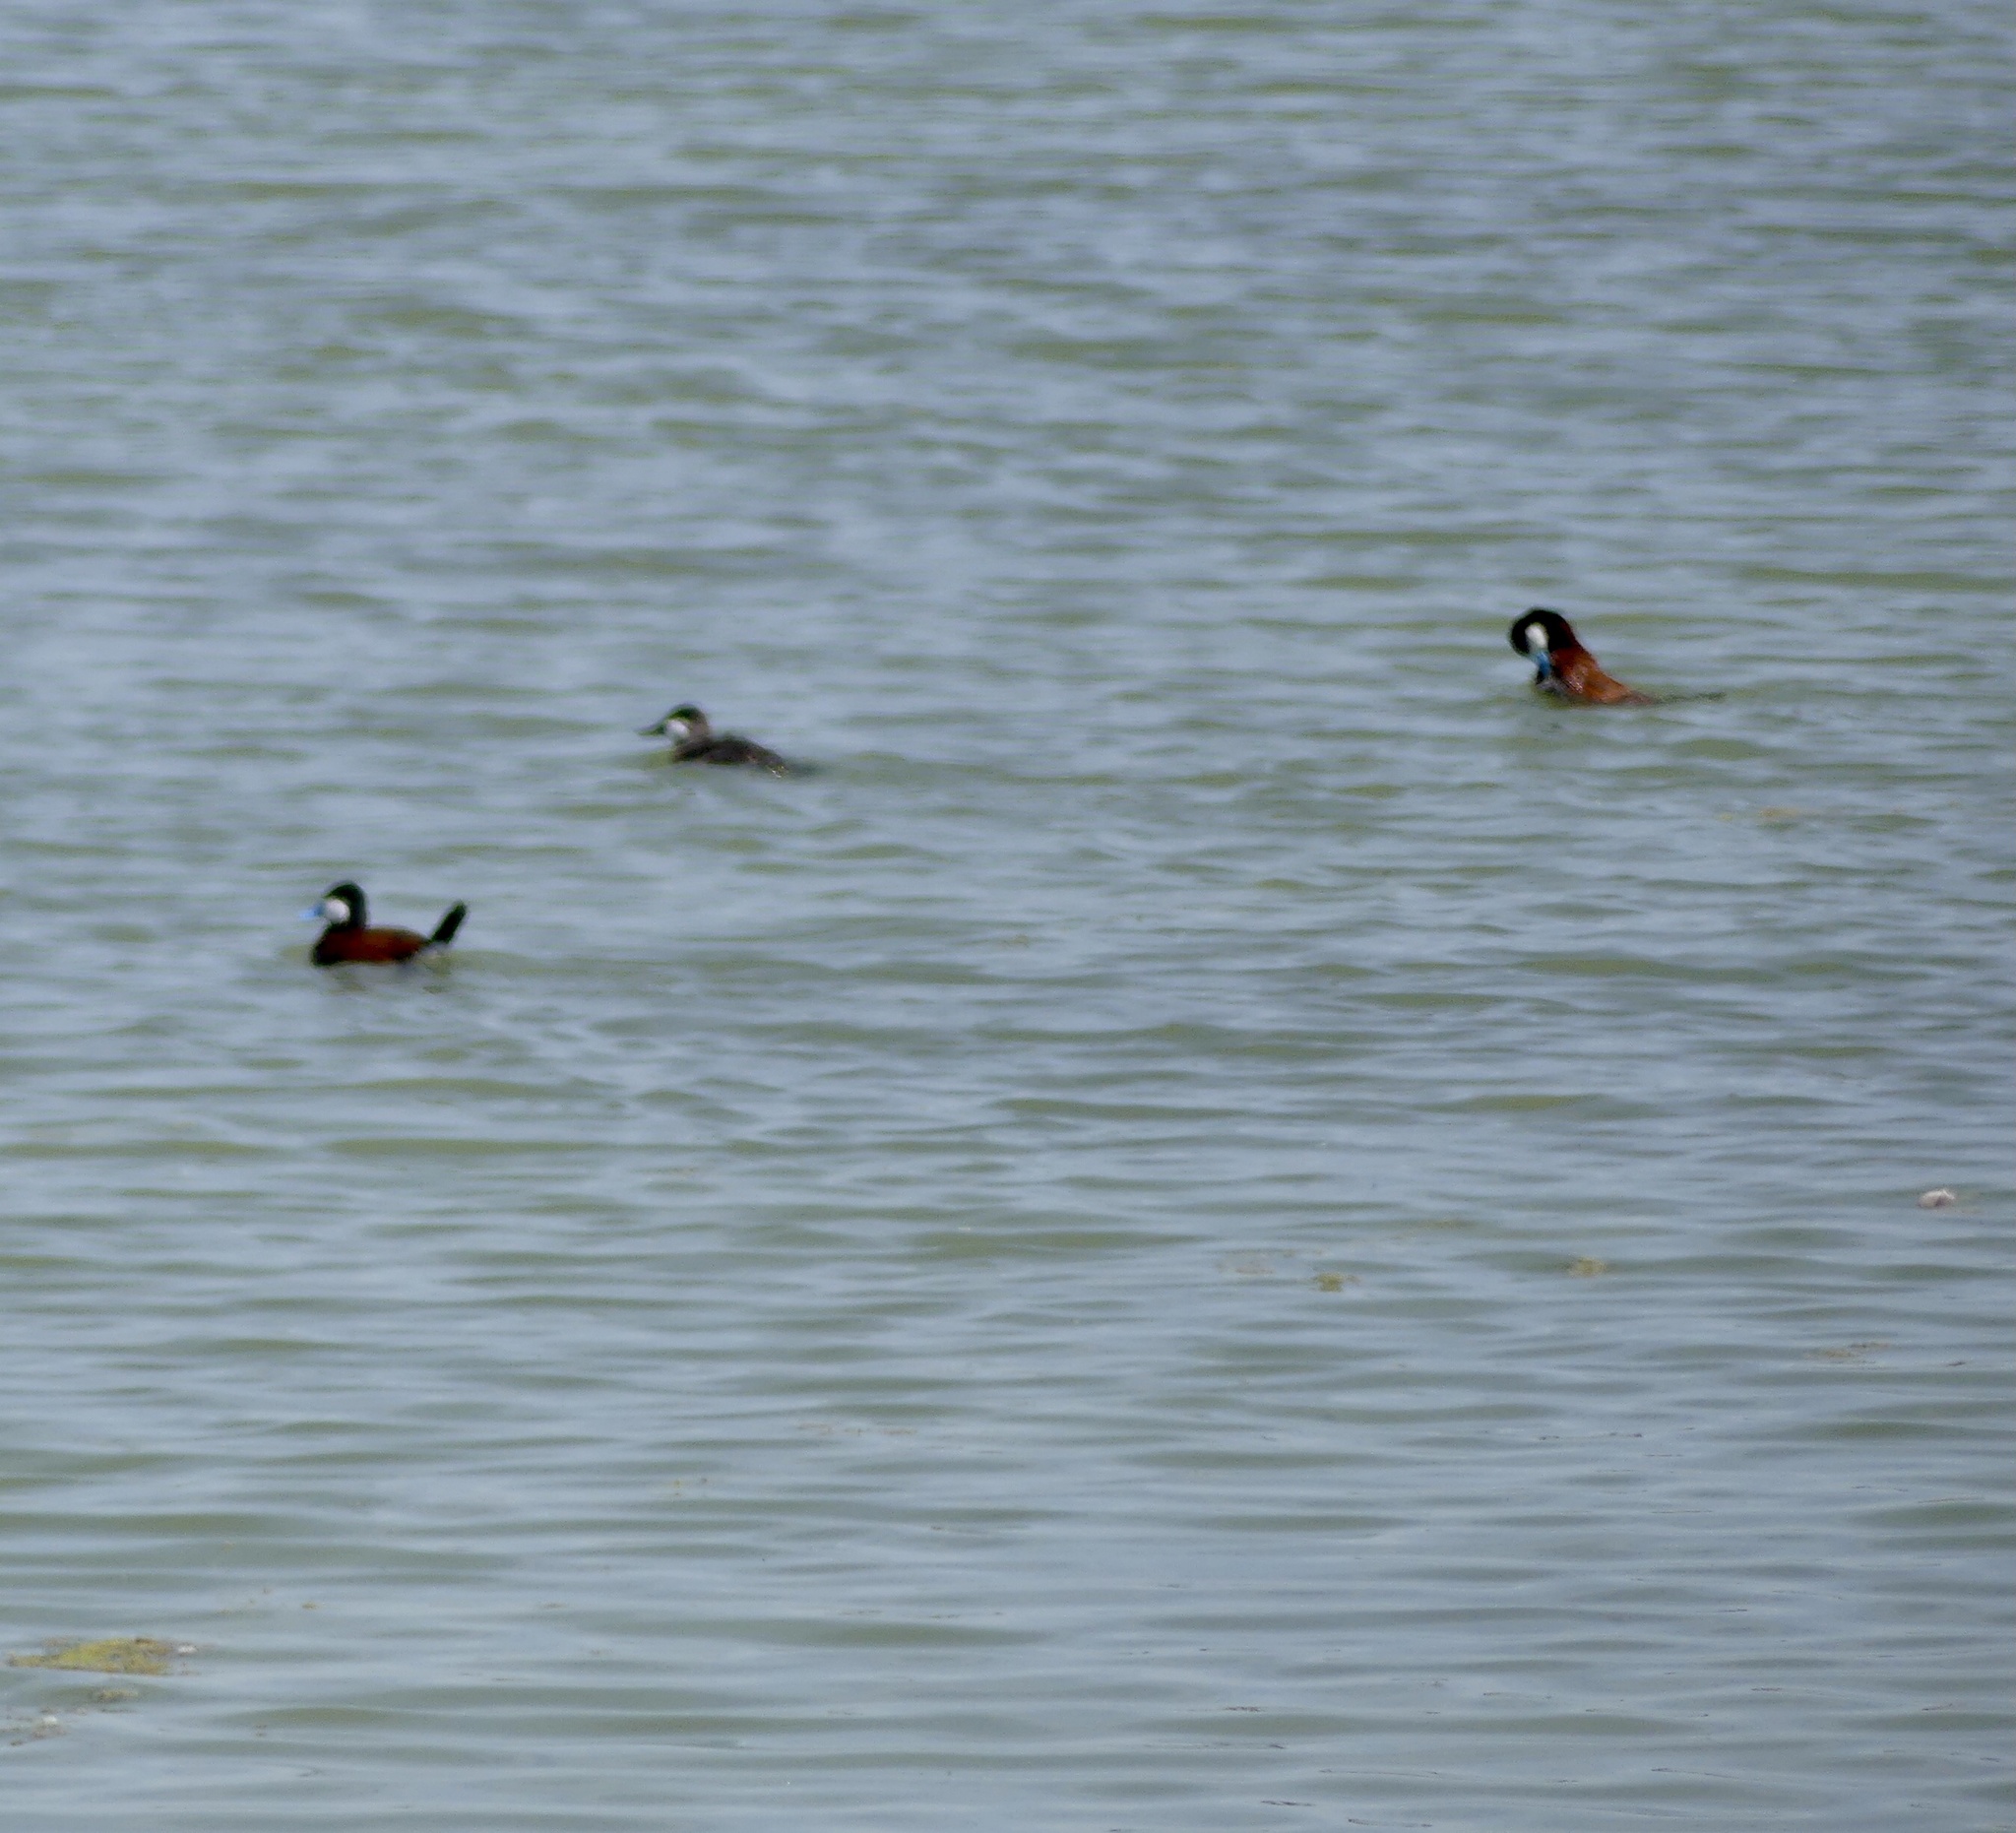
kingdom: Animalia
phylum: Chordata
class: Aves
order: Anseriformes
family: Anatidae
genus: Oxyura
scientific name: Oxyura jamaicensis
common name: Ruddy duck
